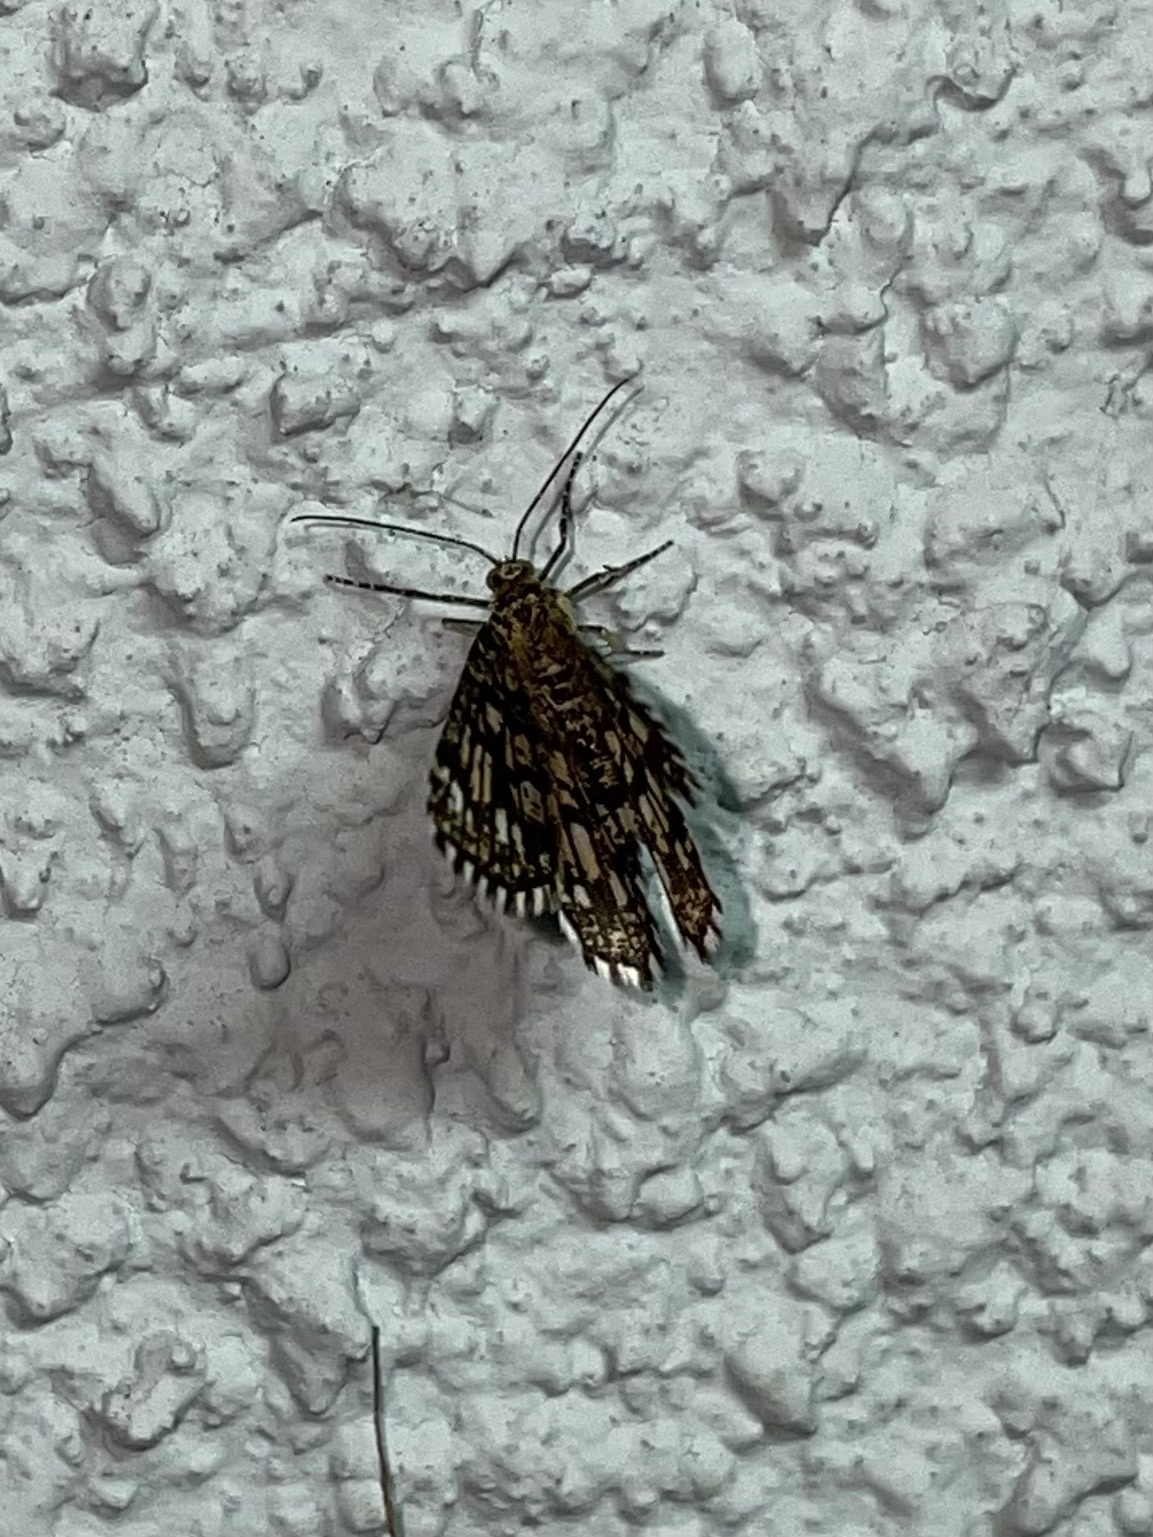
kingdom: Animalia
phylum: Arthropoda
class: Insecta
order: Lepidoptera
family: Geometridae
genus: Chiasmia
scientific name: Chiasmia clathrata
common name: Latticed heath
